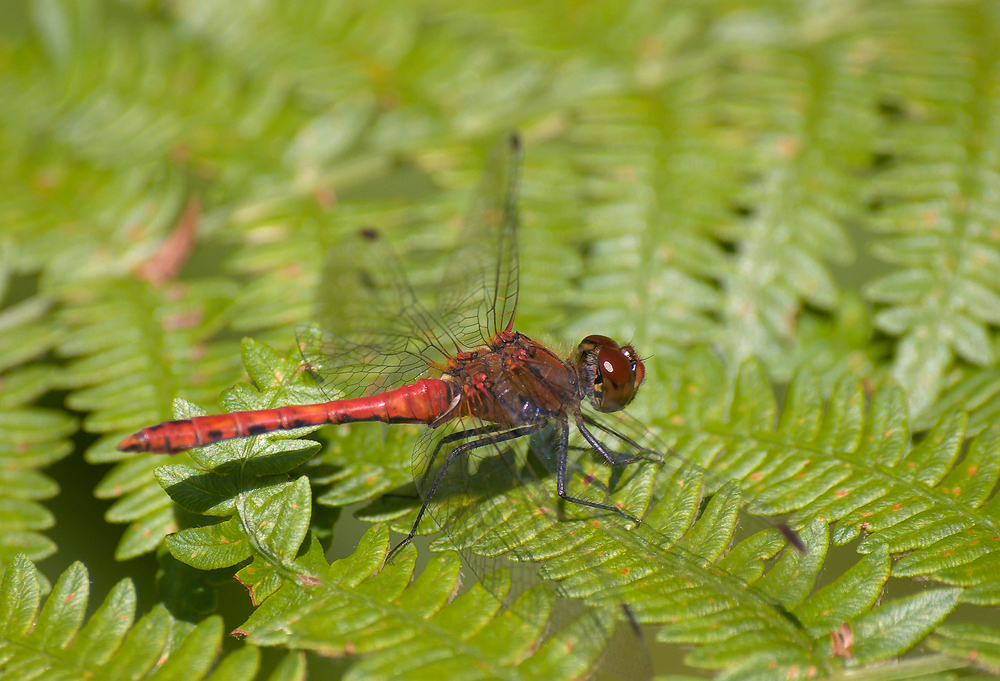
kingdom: Animalia
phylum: Arthropoda
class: Insecta
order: Odonata
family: Libellulidae
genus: Sympetrum
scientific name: Sympetrum sanguineum
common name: Ruddy darter
